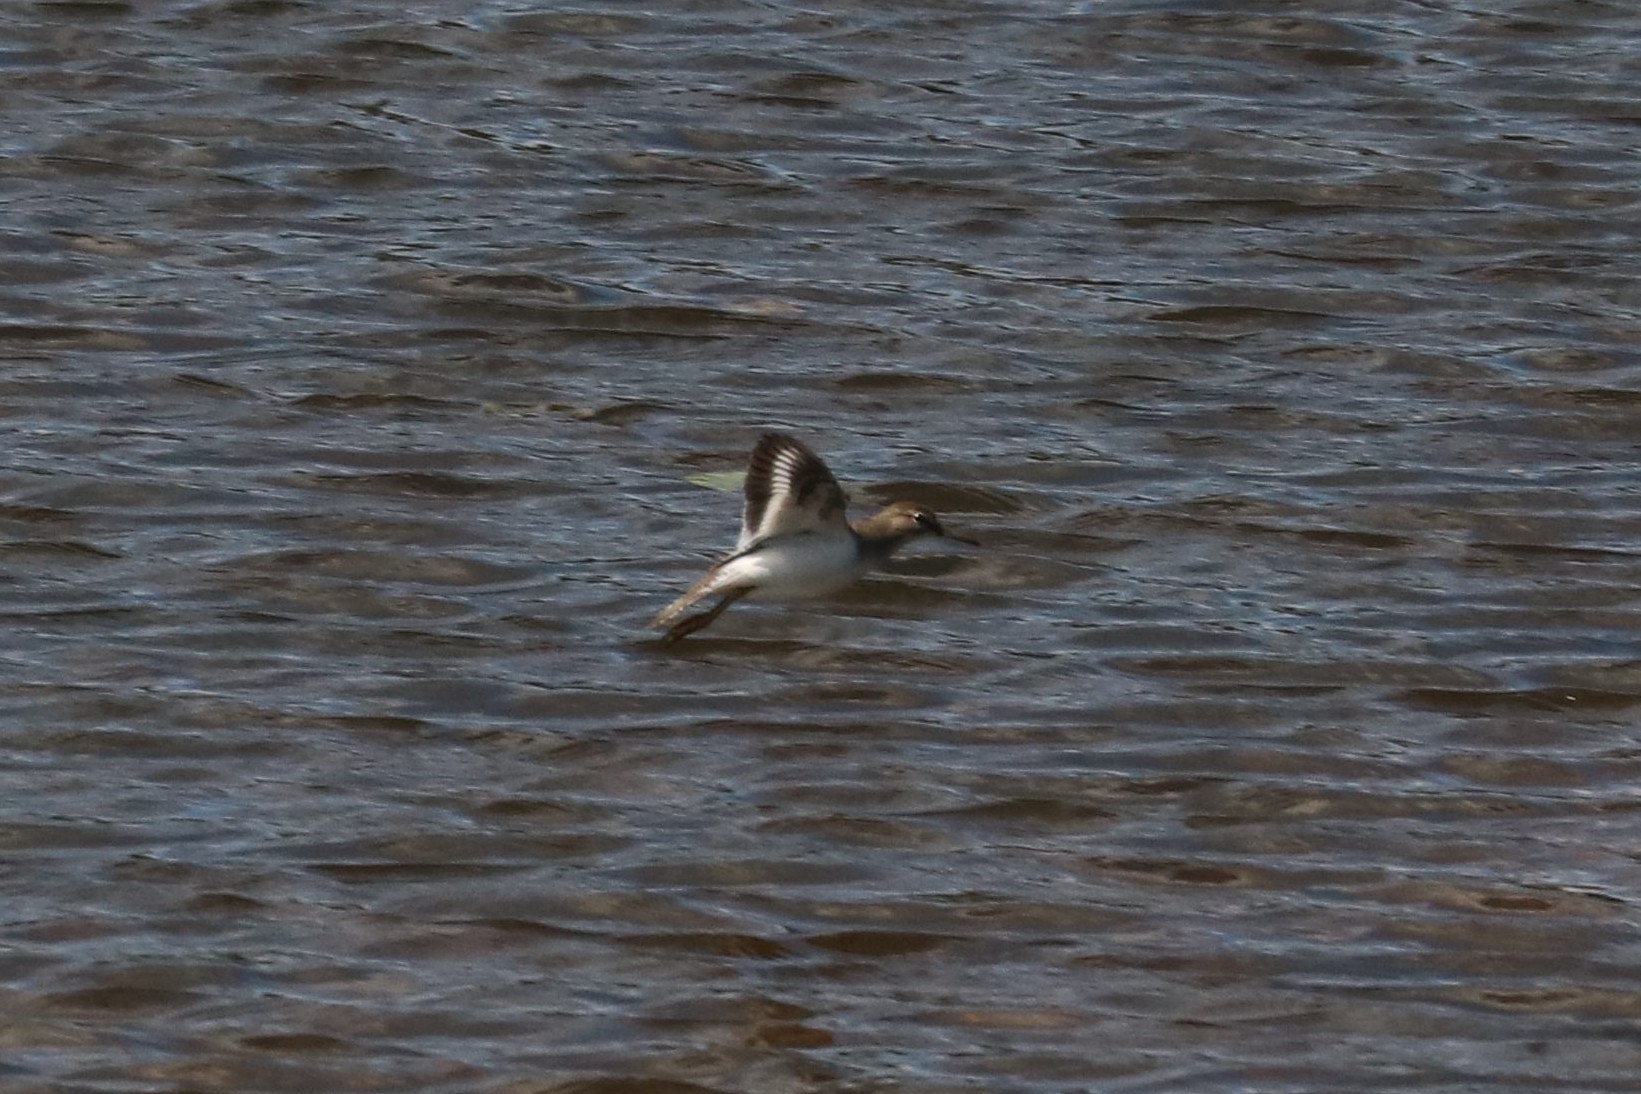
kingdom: Animalia
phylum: Chordata
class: Aves
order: Charadriiformes
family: Scolopacidae
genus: Actitis
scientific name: Actitis hypoleucos
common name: Common sandpiper
